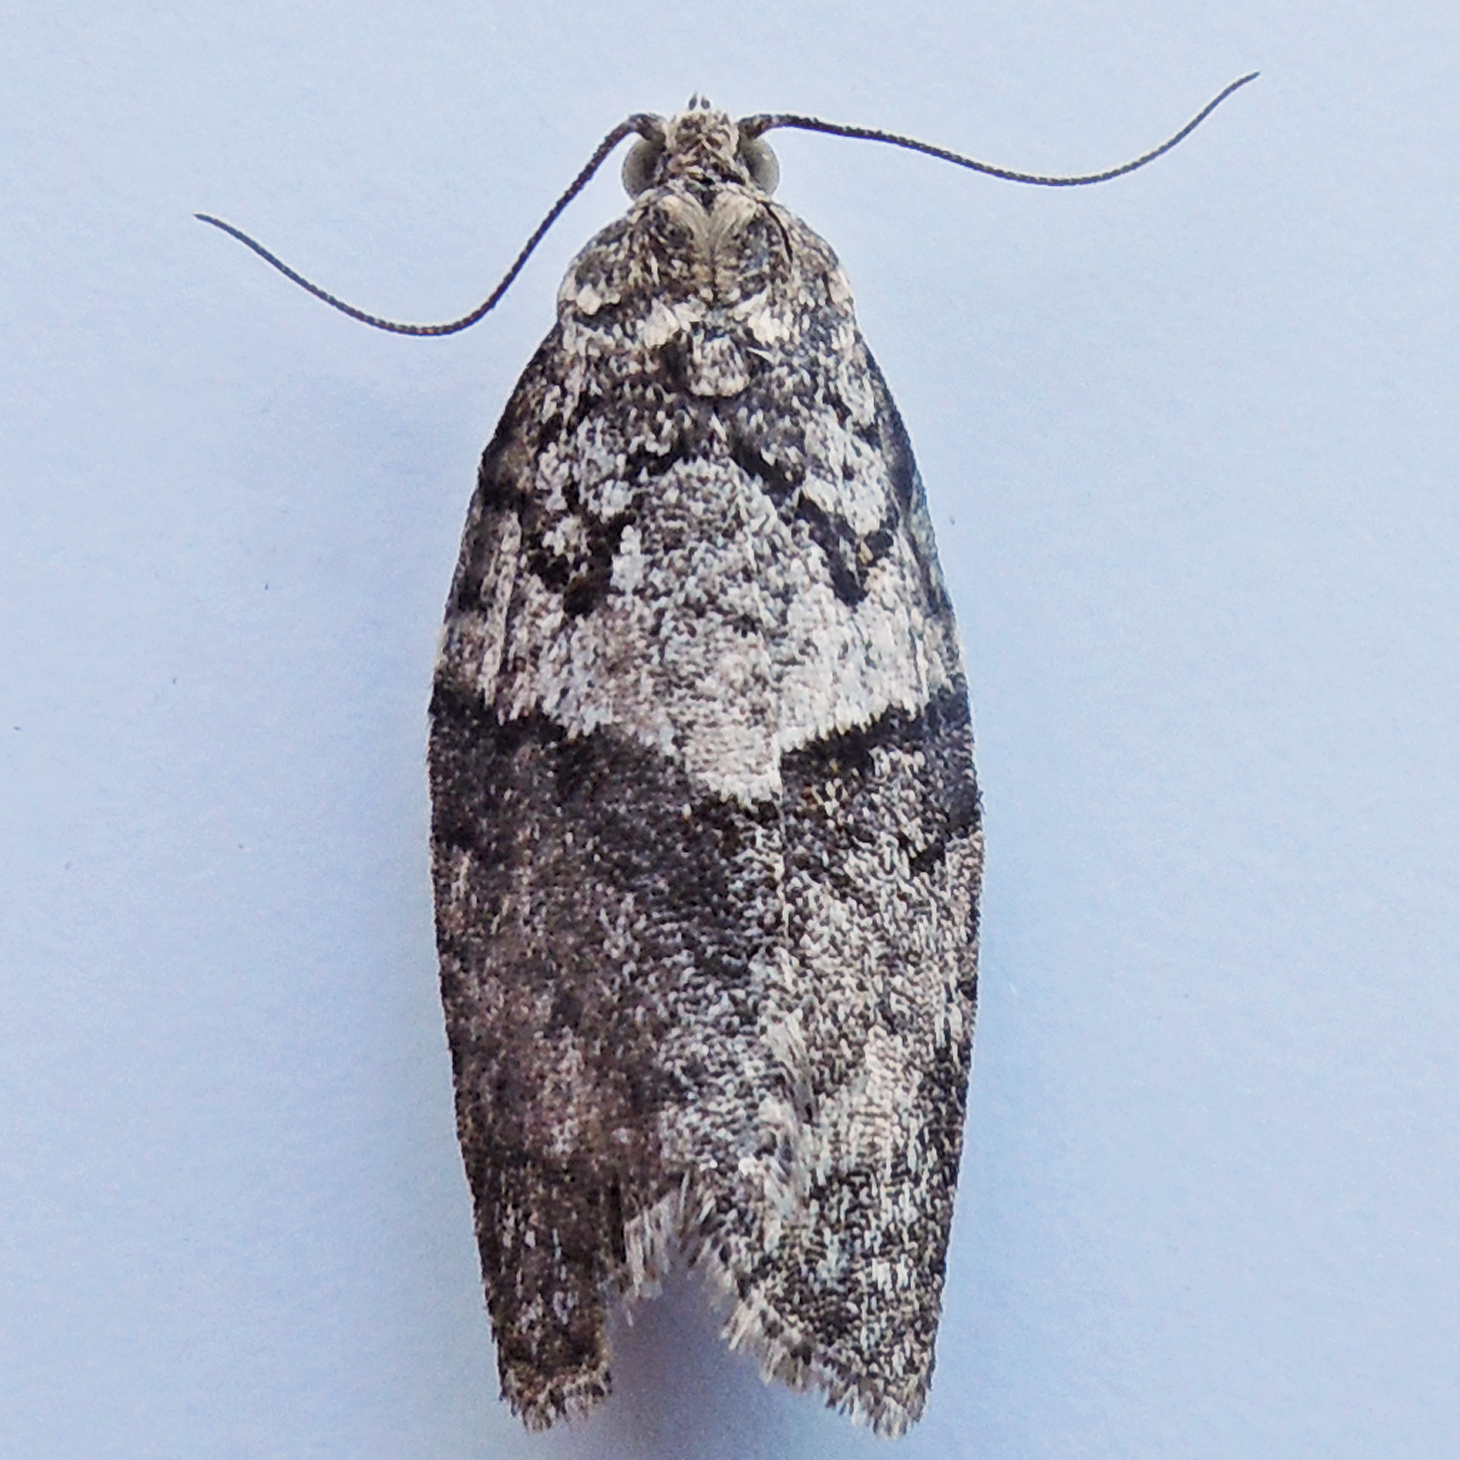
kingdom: Animalia
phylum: Arthropoda
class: Insecta
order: Lepidoptera
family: Tortricidae
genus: Syndemis
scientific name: Syndemis afflictana
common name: Gray leafroller moth
